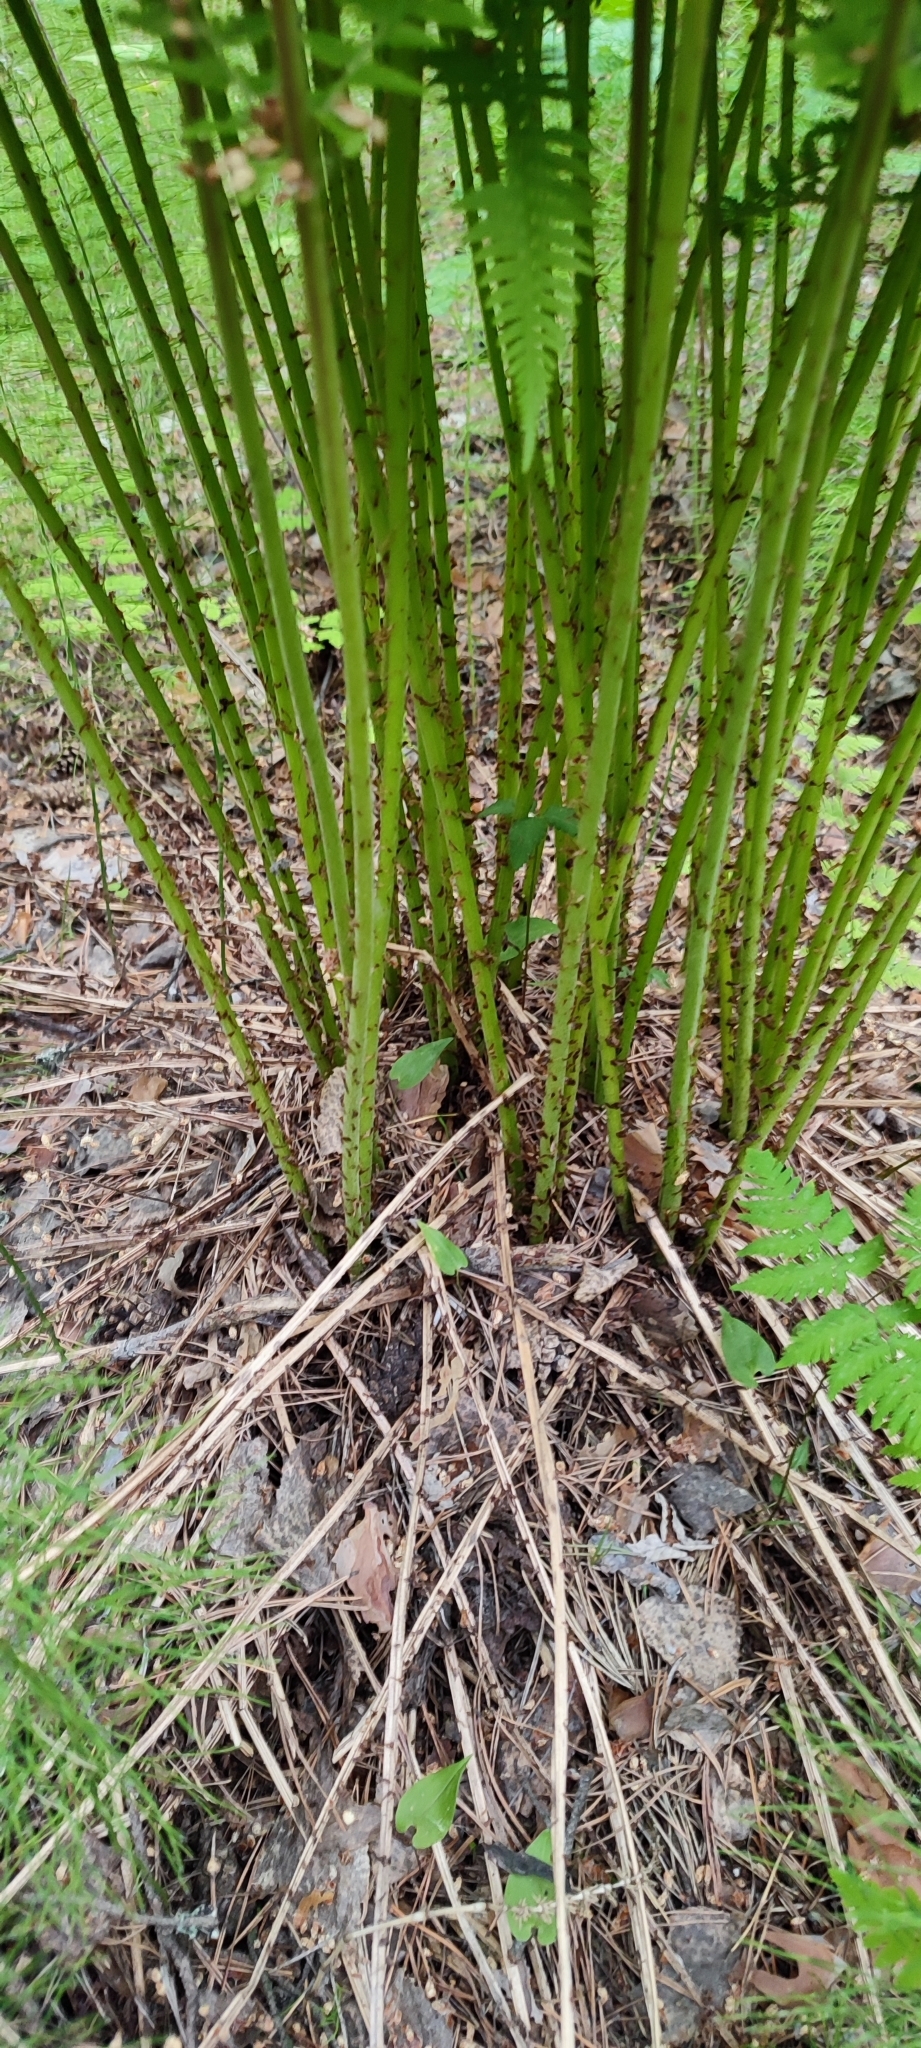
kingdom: Plantae
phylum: Tracheophyta
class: Polypodiopsida
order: Polypodiales
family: Athyriaceae
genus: Athyrium
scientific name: Athyrium filix-femina
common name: Lady fern
